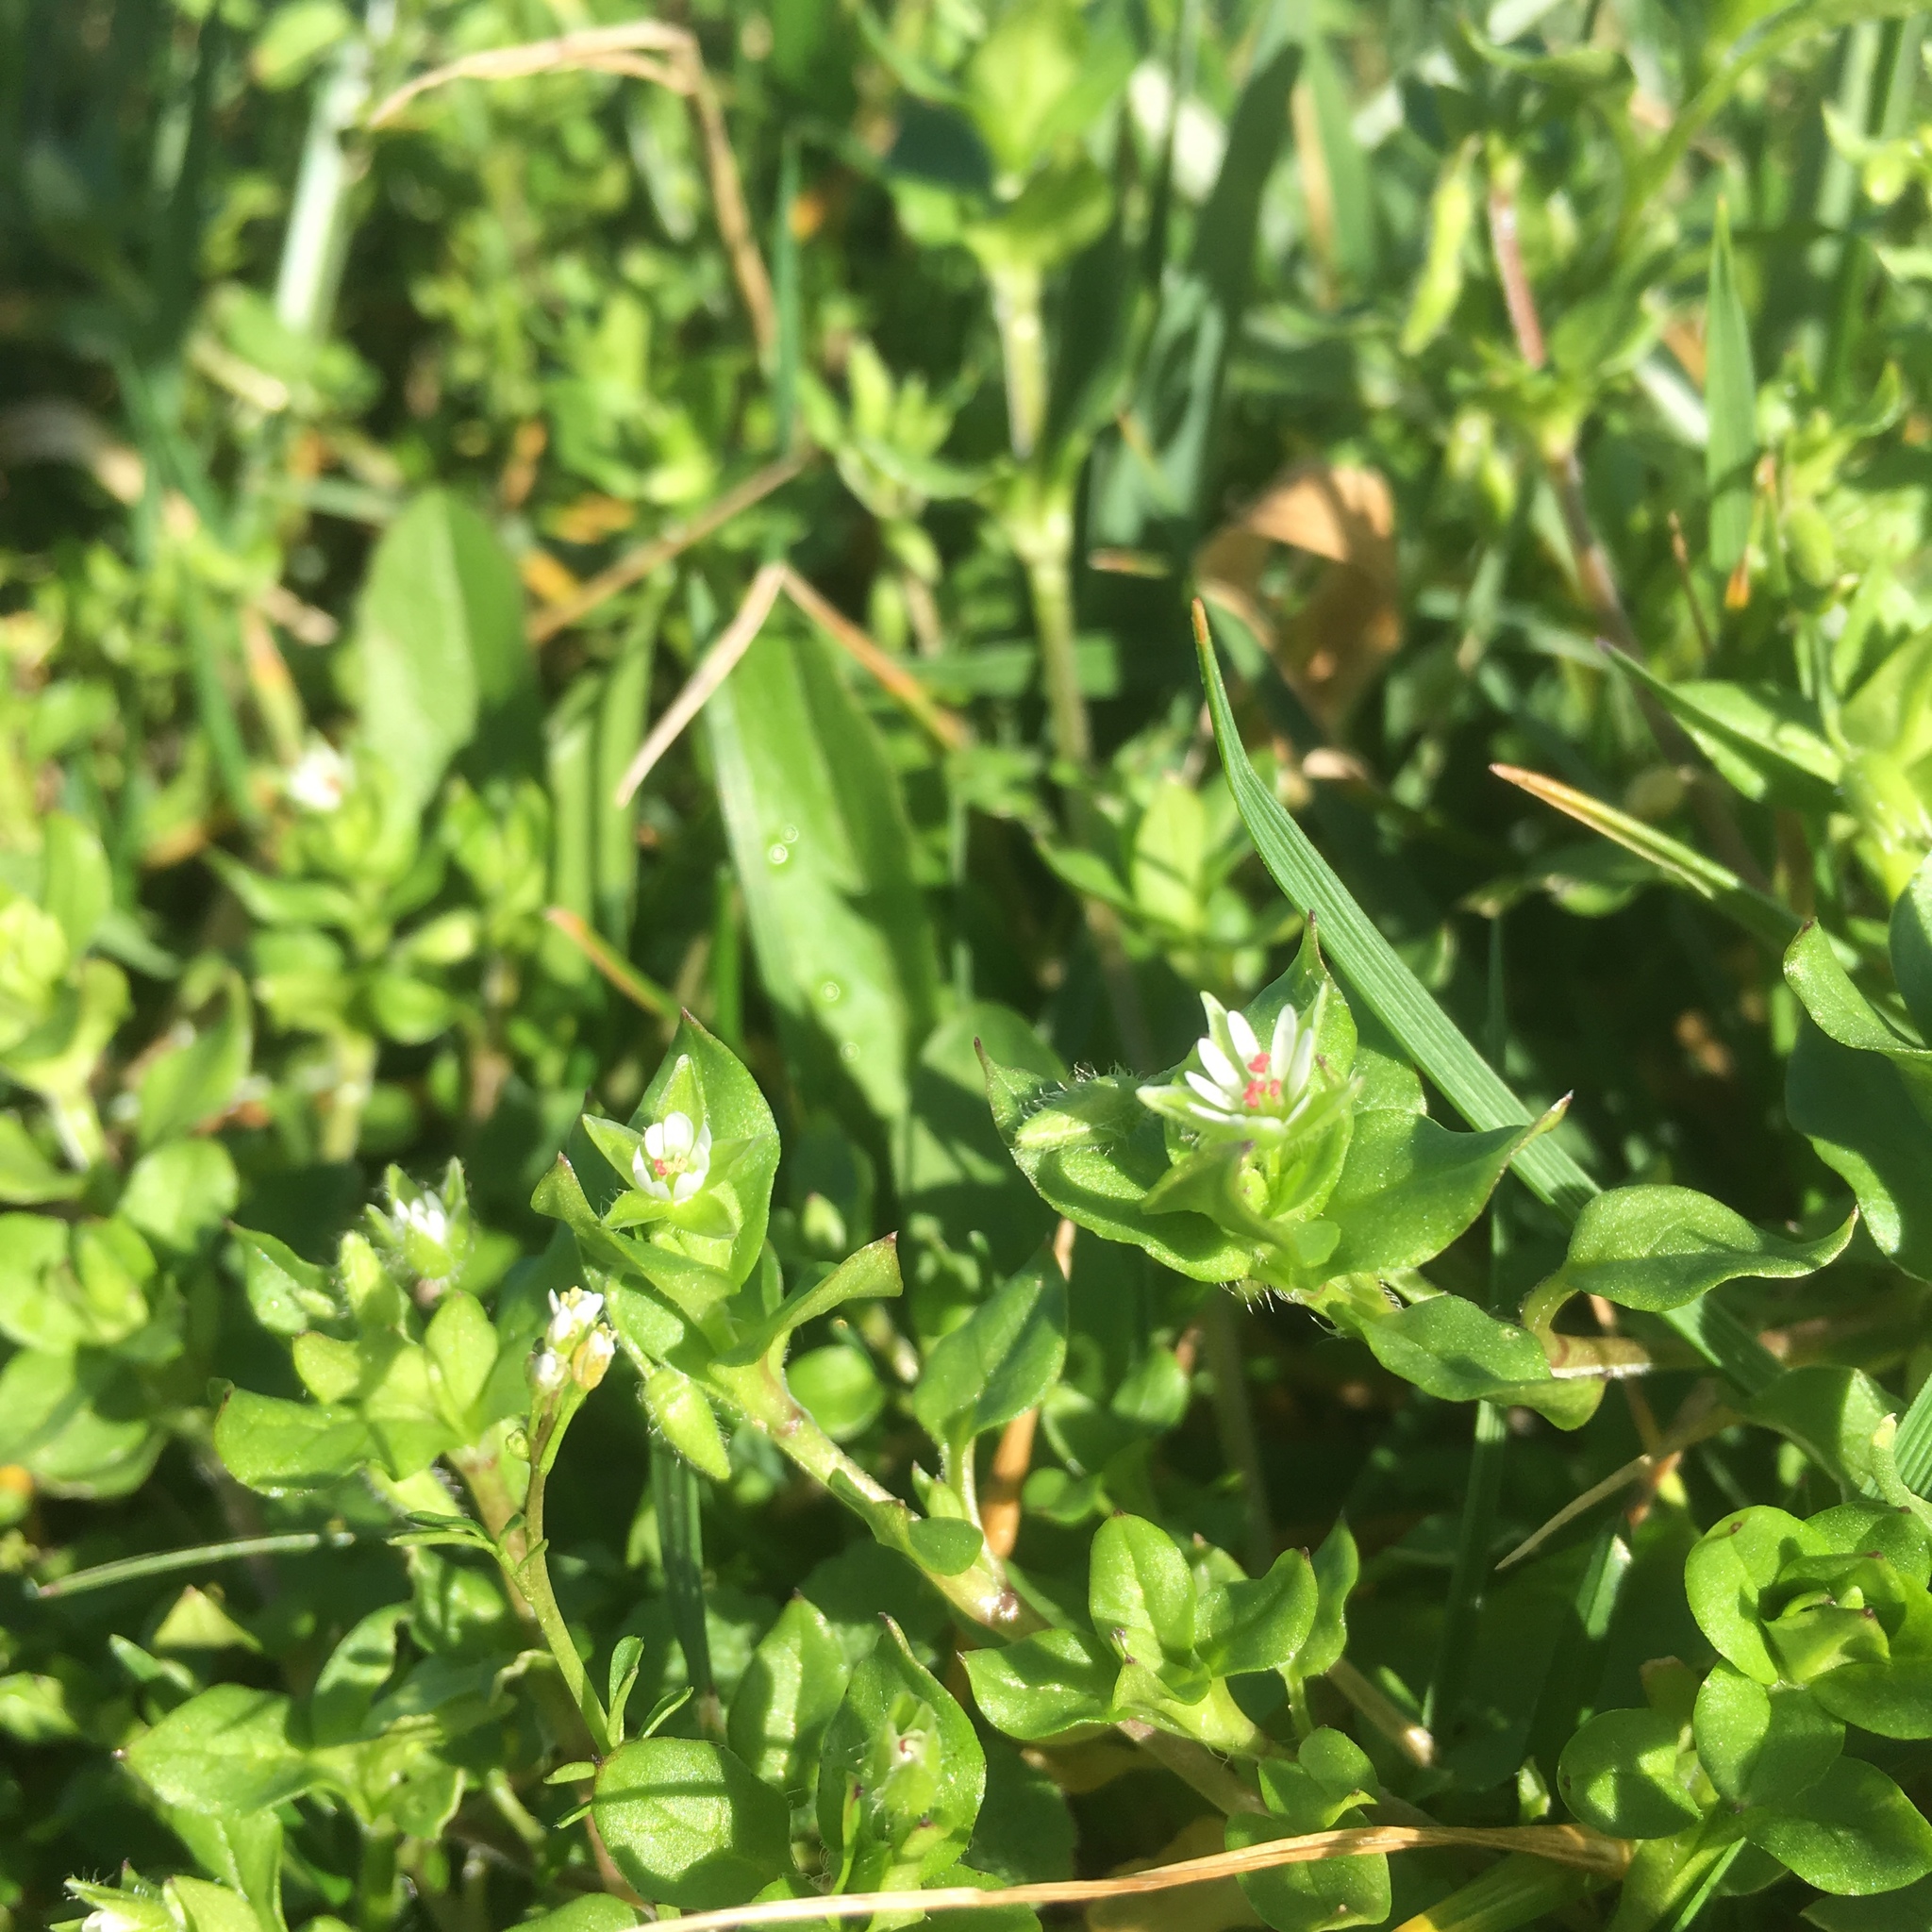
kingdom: Plantae
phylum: Tracheophyta
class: Magnoliopsida
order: Caryophyllales
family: Caryophyllaceae
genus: Stellaria
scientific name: Stellaria media
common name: Common chickweed
